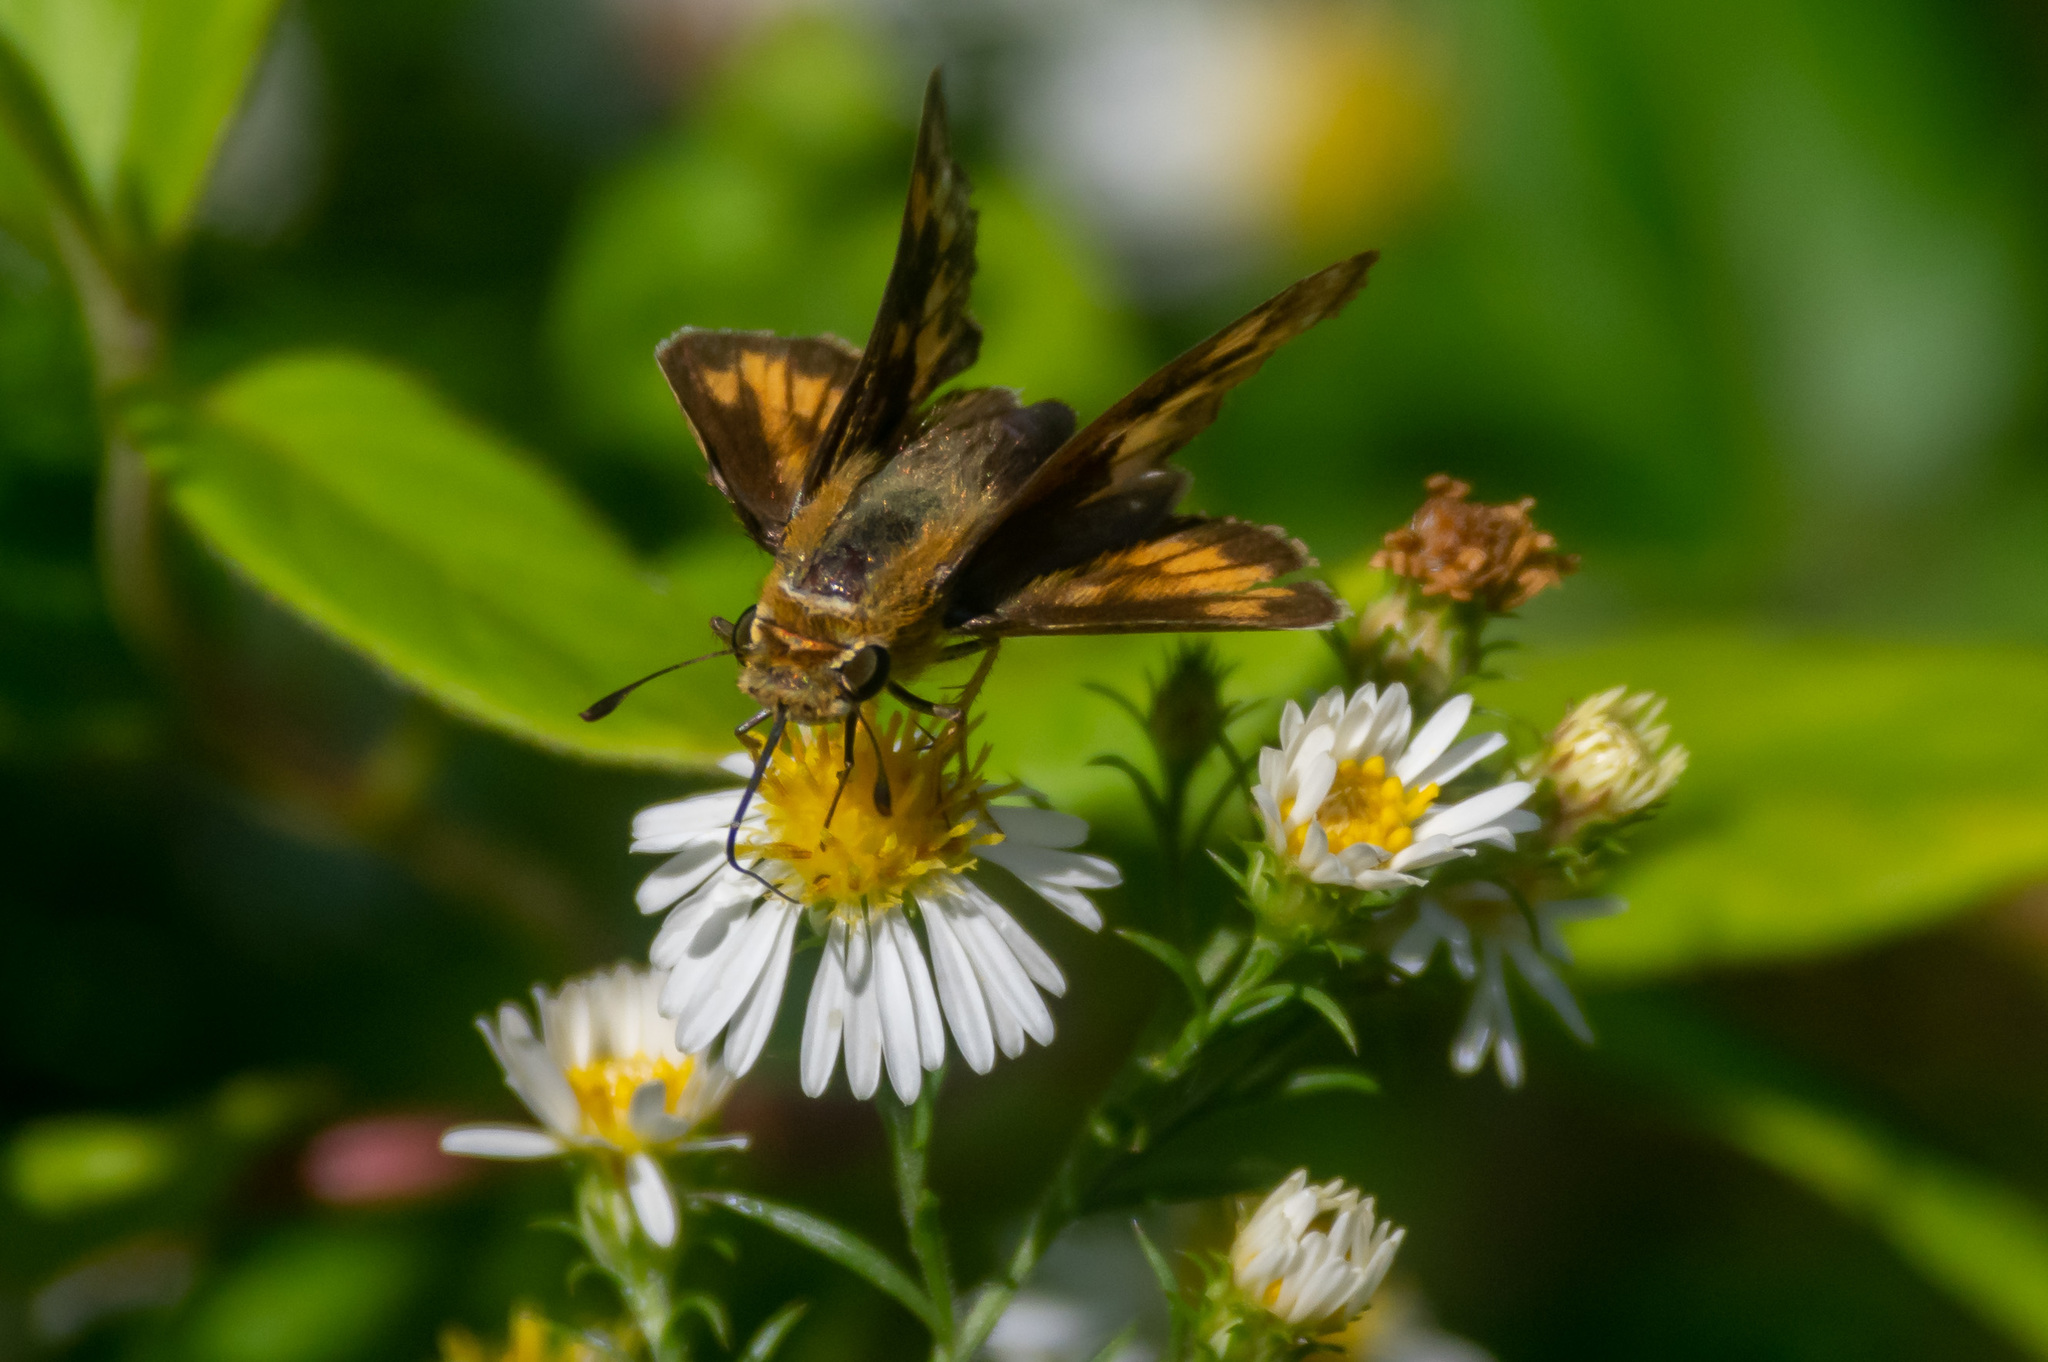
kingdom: Animalia
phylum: Arthropoda
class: Insecta
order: Lepidoptera
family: Hesperiidae
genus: Hylephila
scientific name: Hylephila phyleus
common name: Fiery skipper
